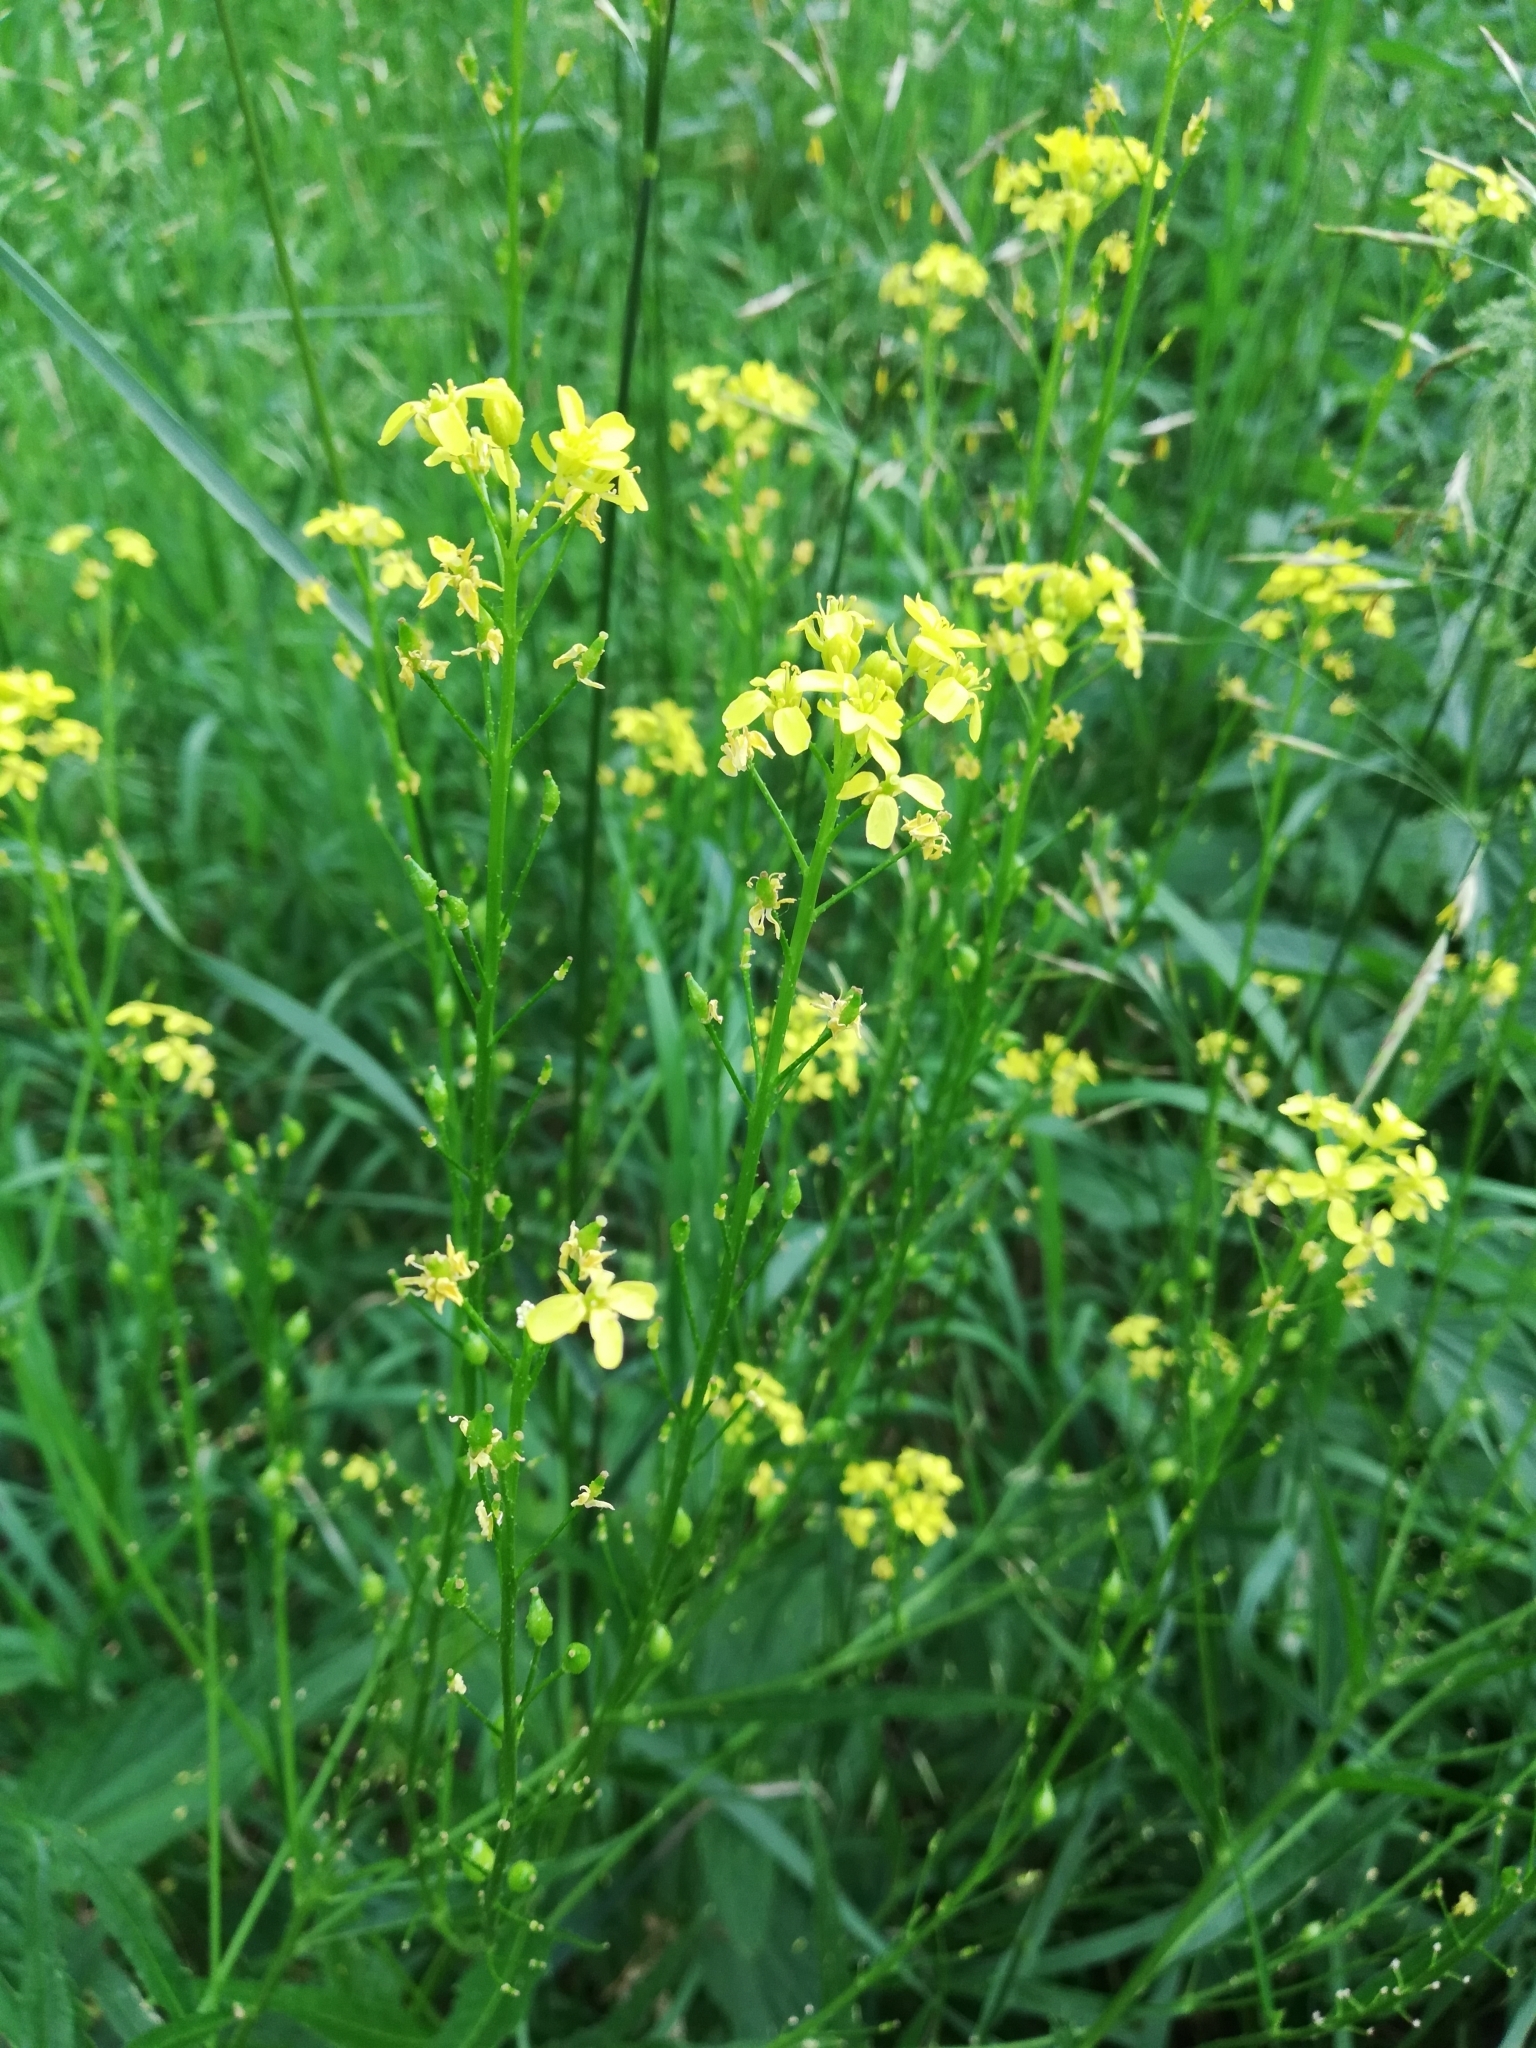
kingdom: Plantae
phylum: Tracheophyta
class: Magnoliopsida
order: Brassicales
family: Brassicaceae
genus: Bunias
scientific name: Bunias orientalis
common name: Warty-cabbage
